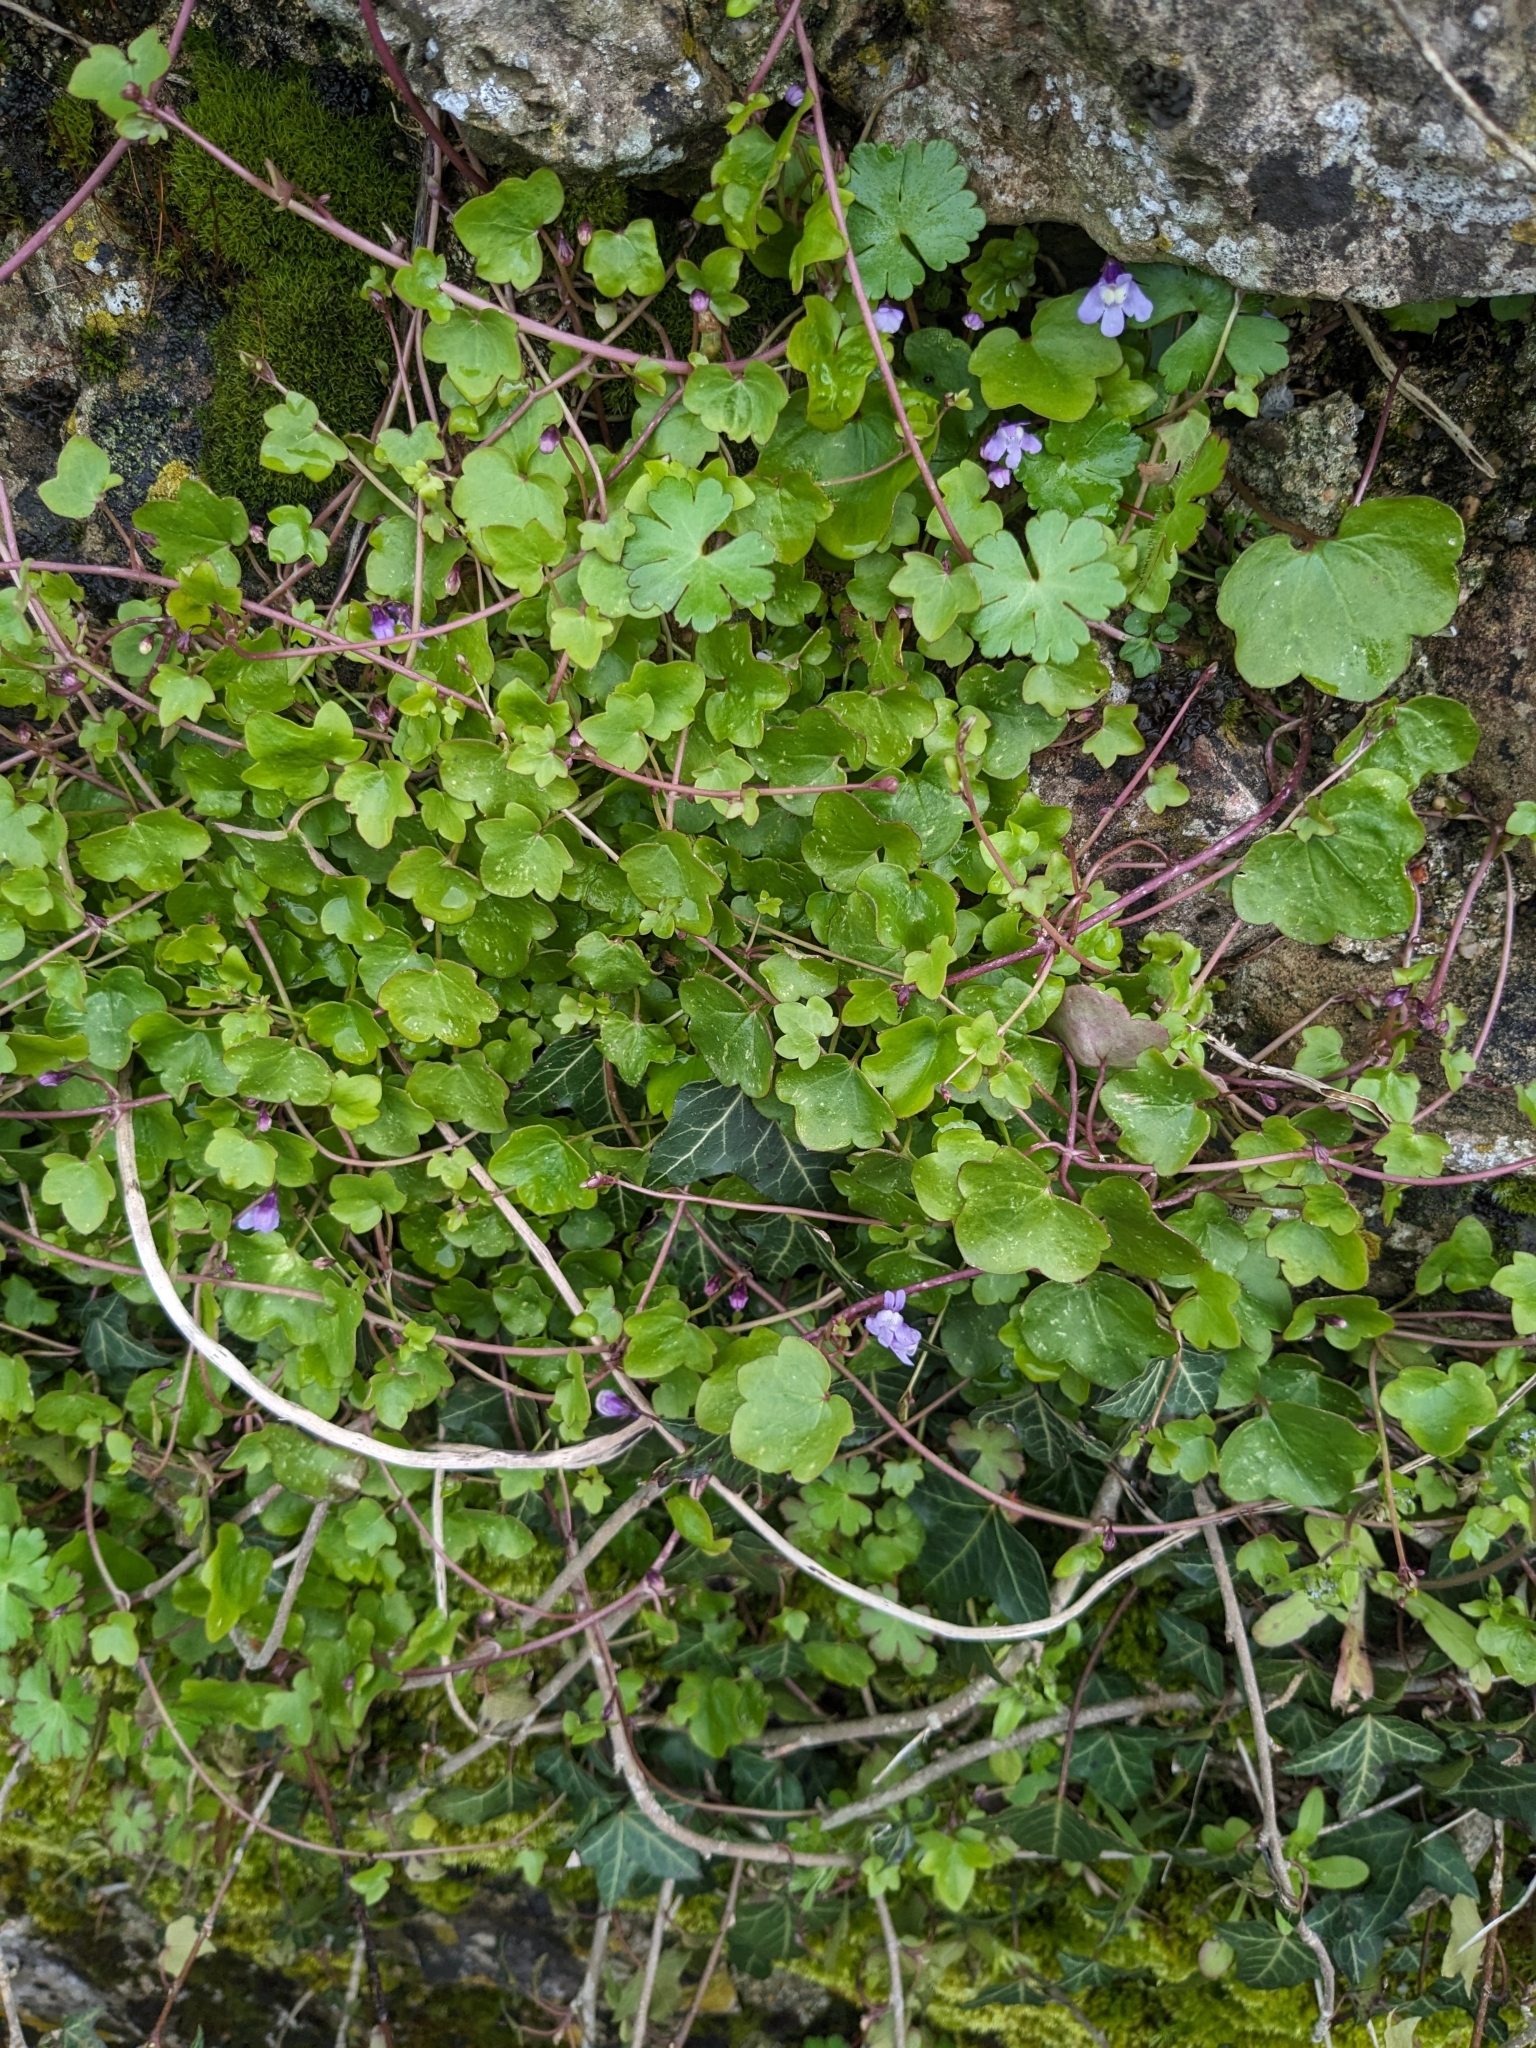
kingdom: Plantae
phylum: Tracheophyta
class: Magnoliopsida
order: Lamiales
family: Plantaginaceae
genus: Cymbalaria
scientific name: Cymbalaria muralis
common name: Ivy-leaved toadflax
